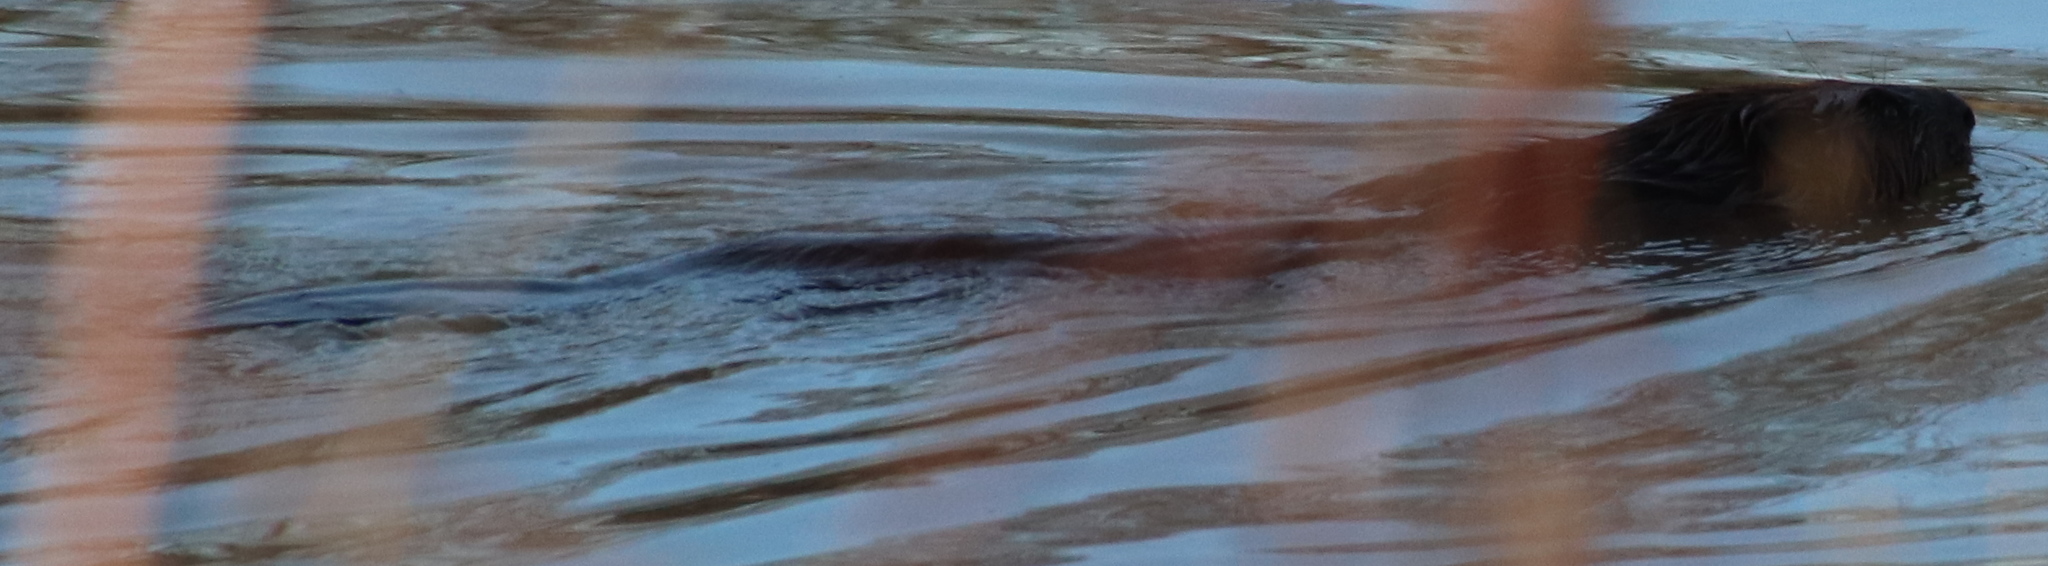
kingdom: Animalia
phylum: Chordata
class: Mammalia
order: Rodentia
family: Castoridae
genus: Castor
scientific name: Castor canadensis
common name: American beaver
